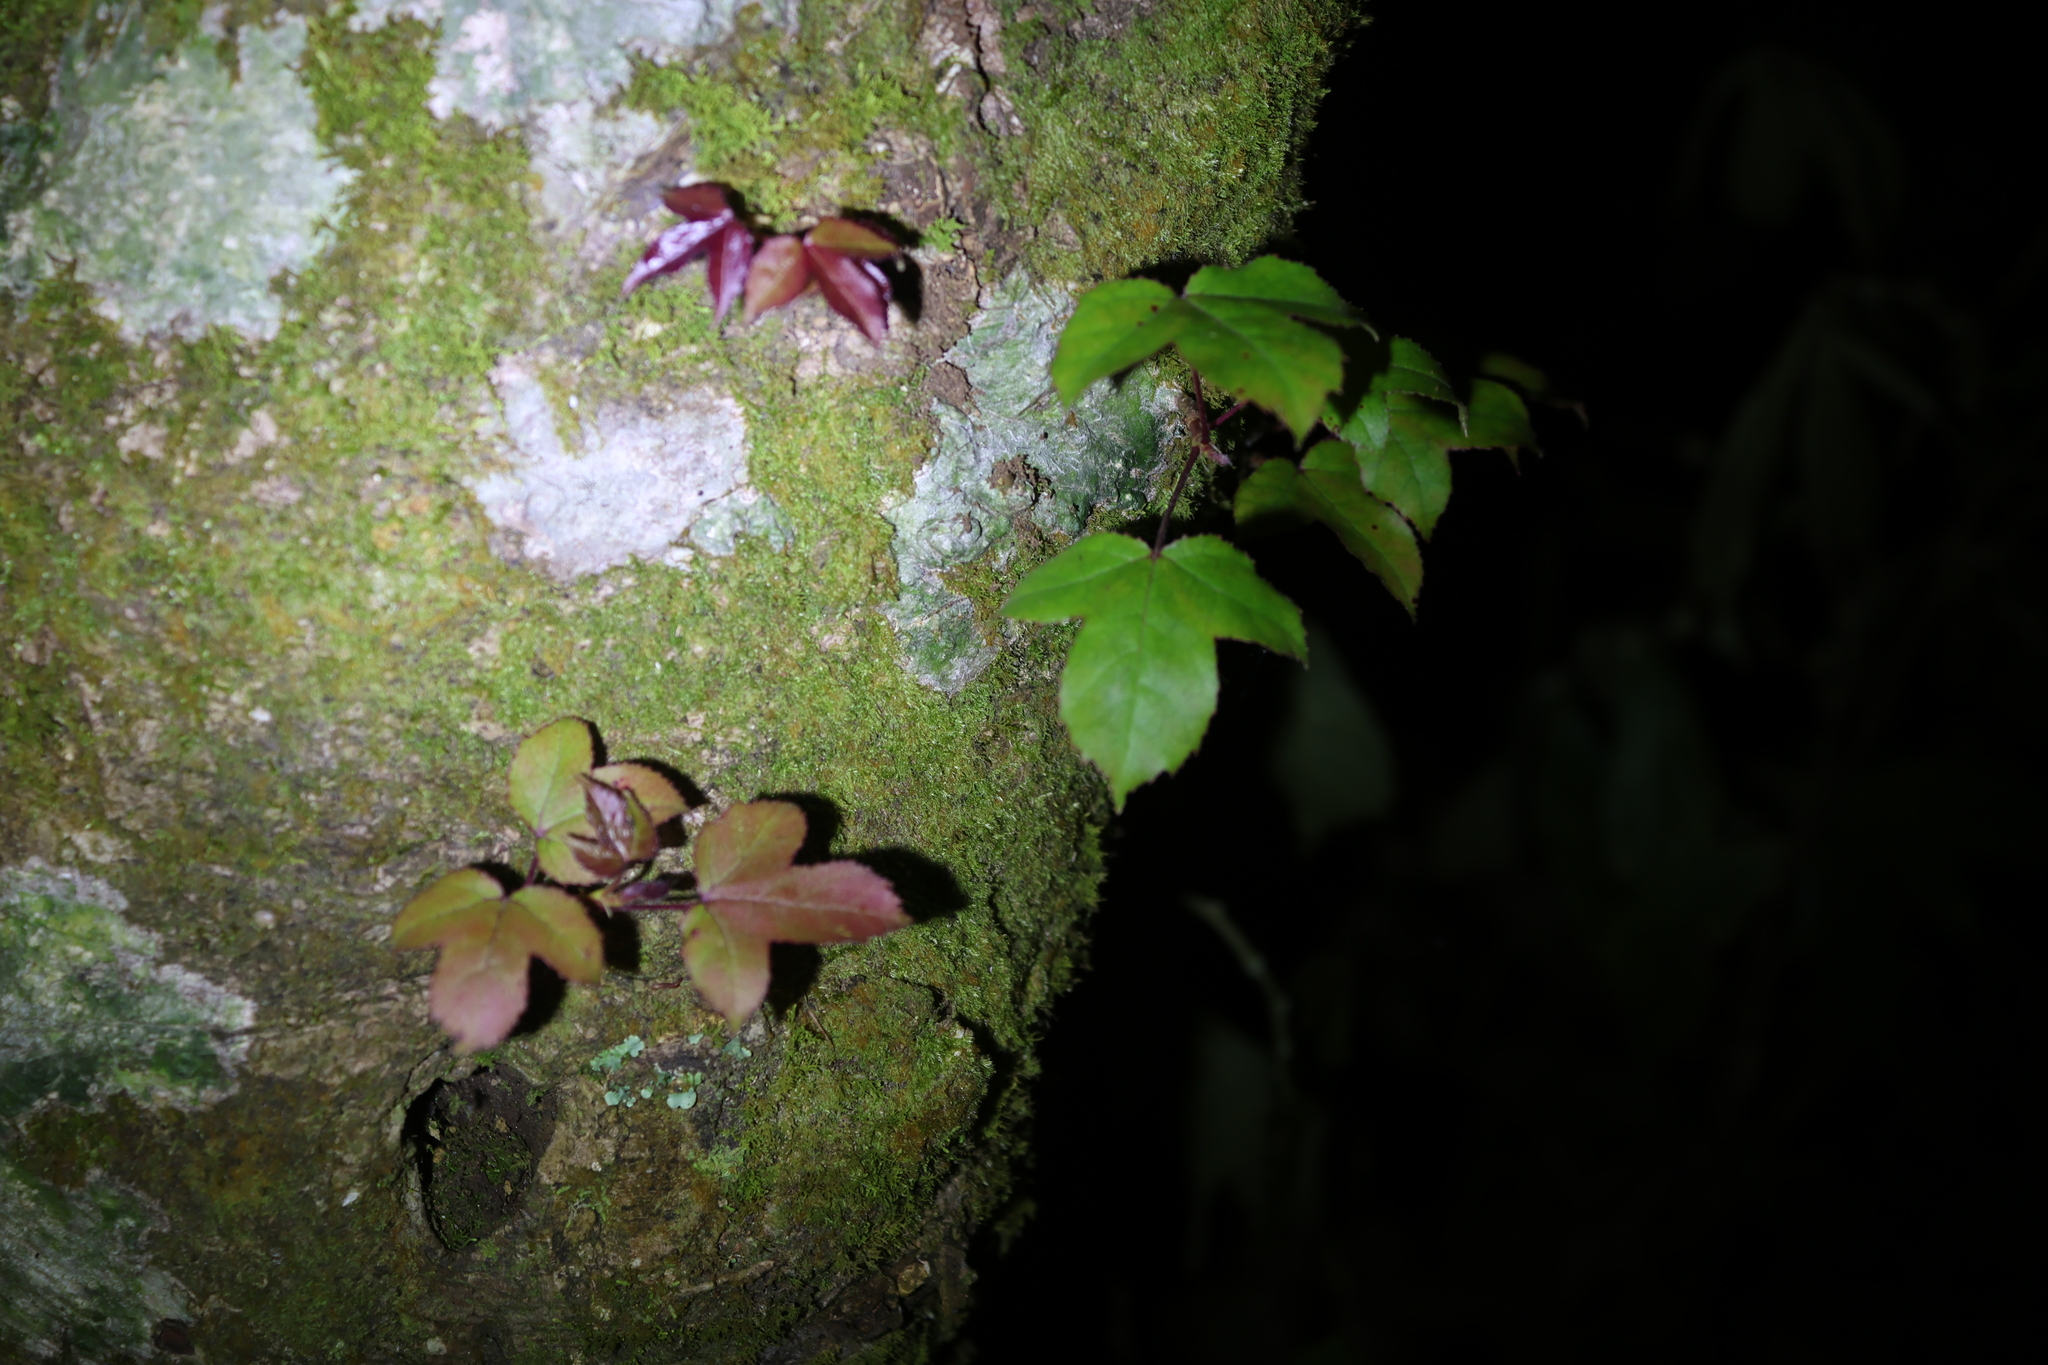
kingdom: Plantae
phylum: Tracheophyta
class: Magnoliopsida
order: Saxifragales
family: Altingiaceae
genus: Liquidambar
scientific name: Liquidambar formosana
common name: Chinese sweet gum
